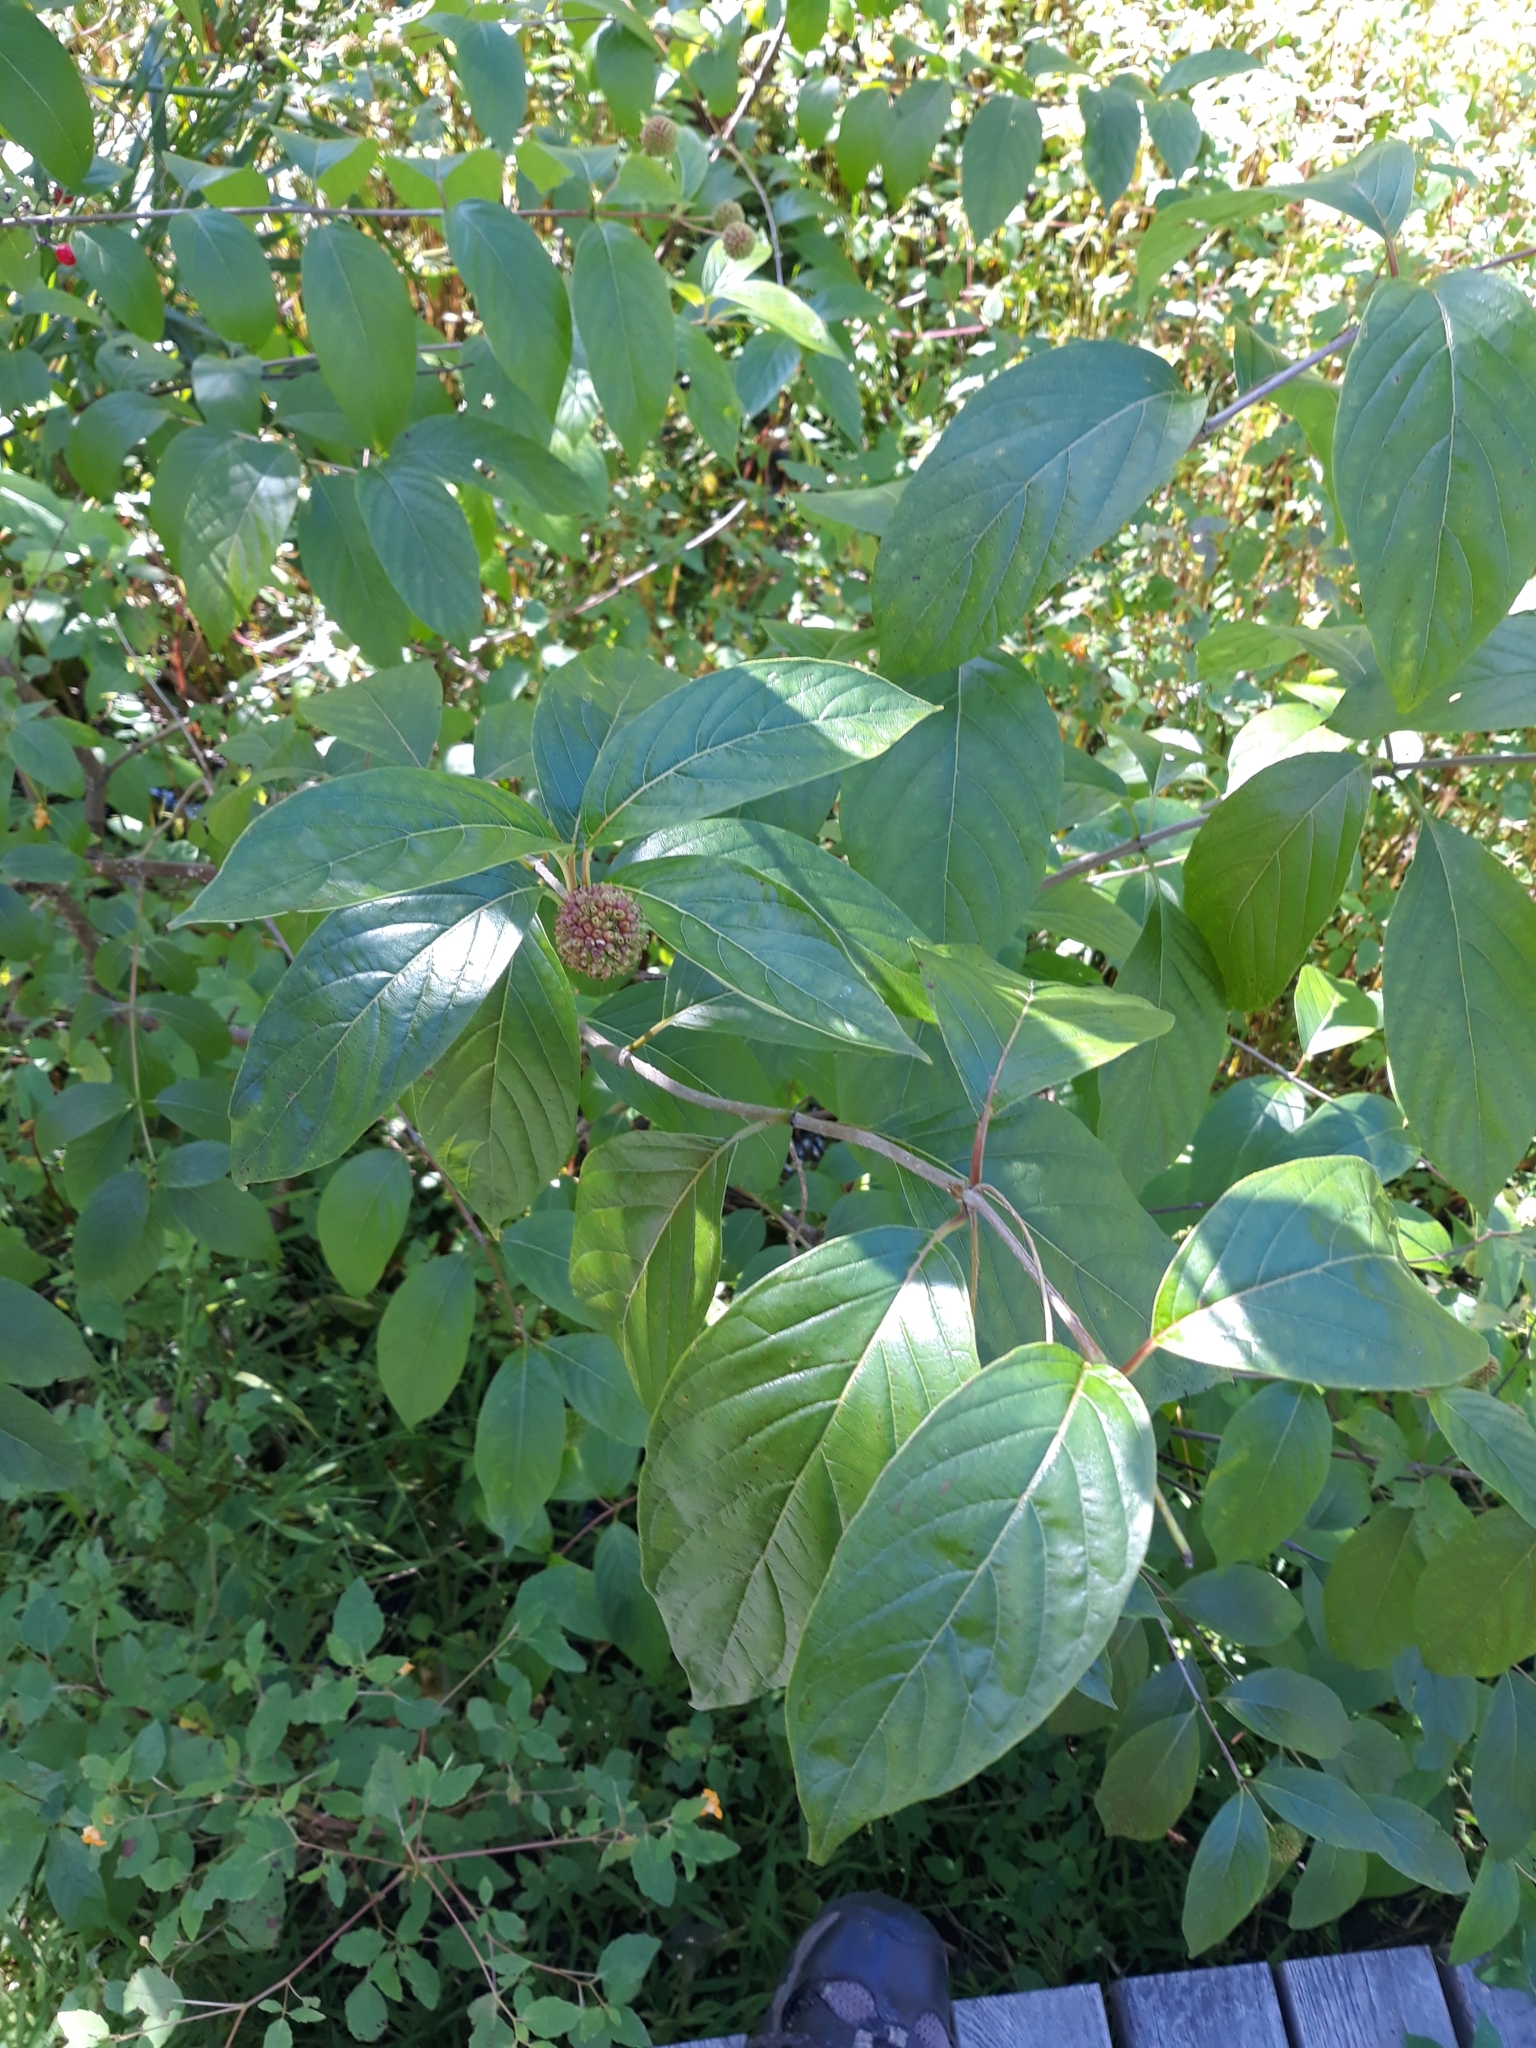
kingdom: Plantae
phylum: Tracheophyta
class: Magnoliopsida
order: Gentianales
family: Rubiaceae
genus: Cephalanthus
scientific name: Cephalanthus occidentalis
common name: Button-willow
